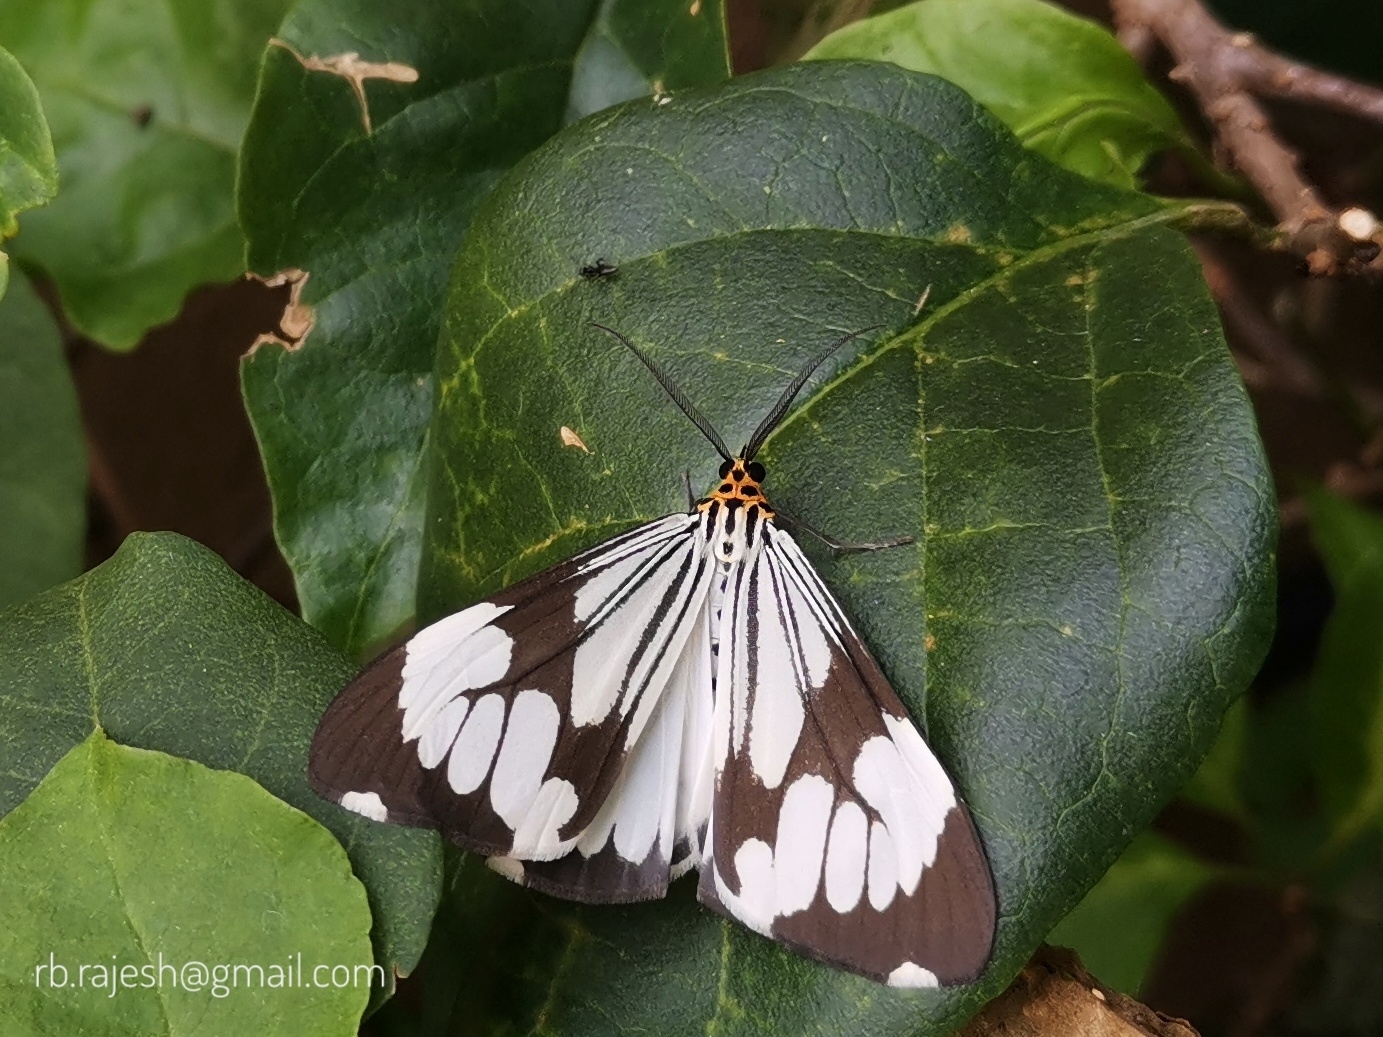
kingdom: Animalia
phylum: Arthropoda
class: Insecta
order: Lepidoptera
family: Erebidae
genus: Nyctemera
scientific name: Nyctemera coleta
